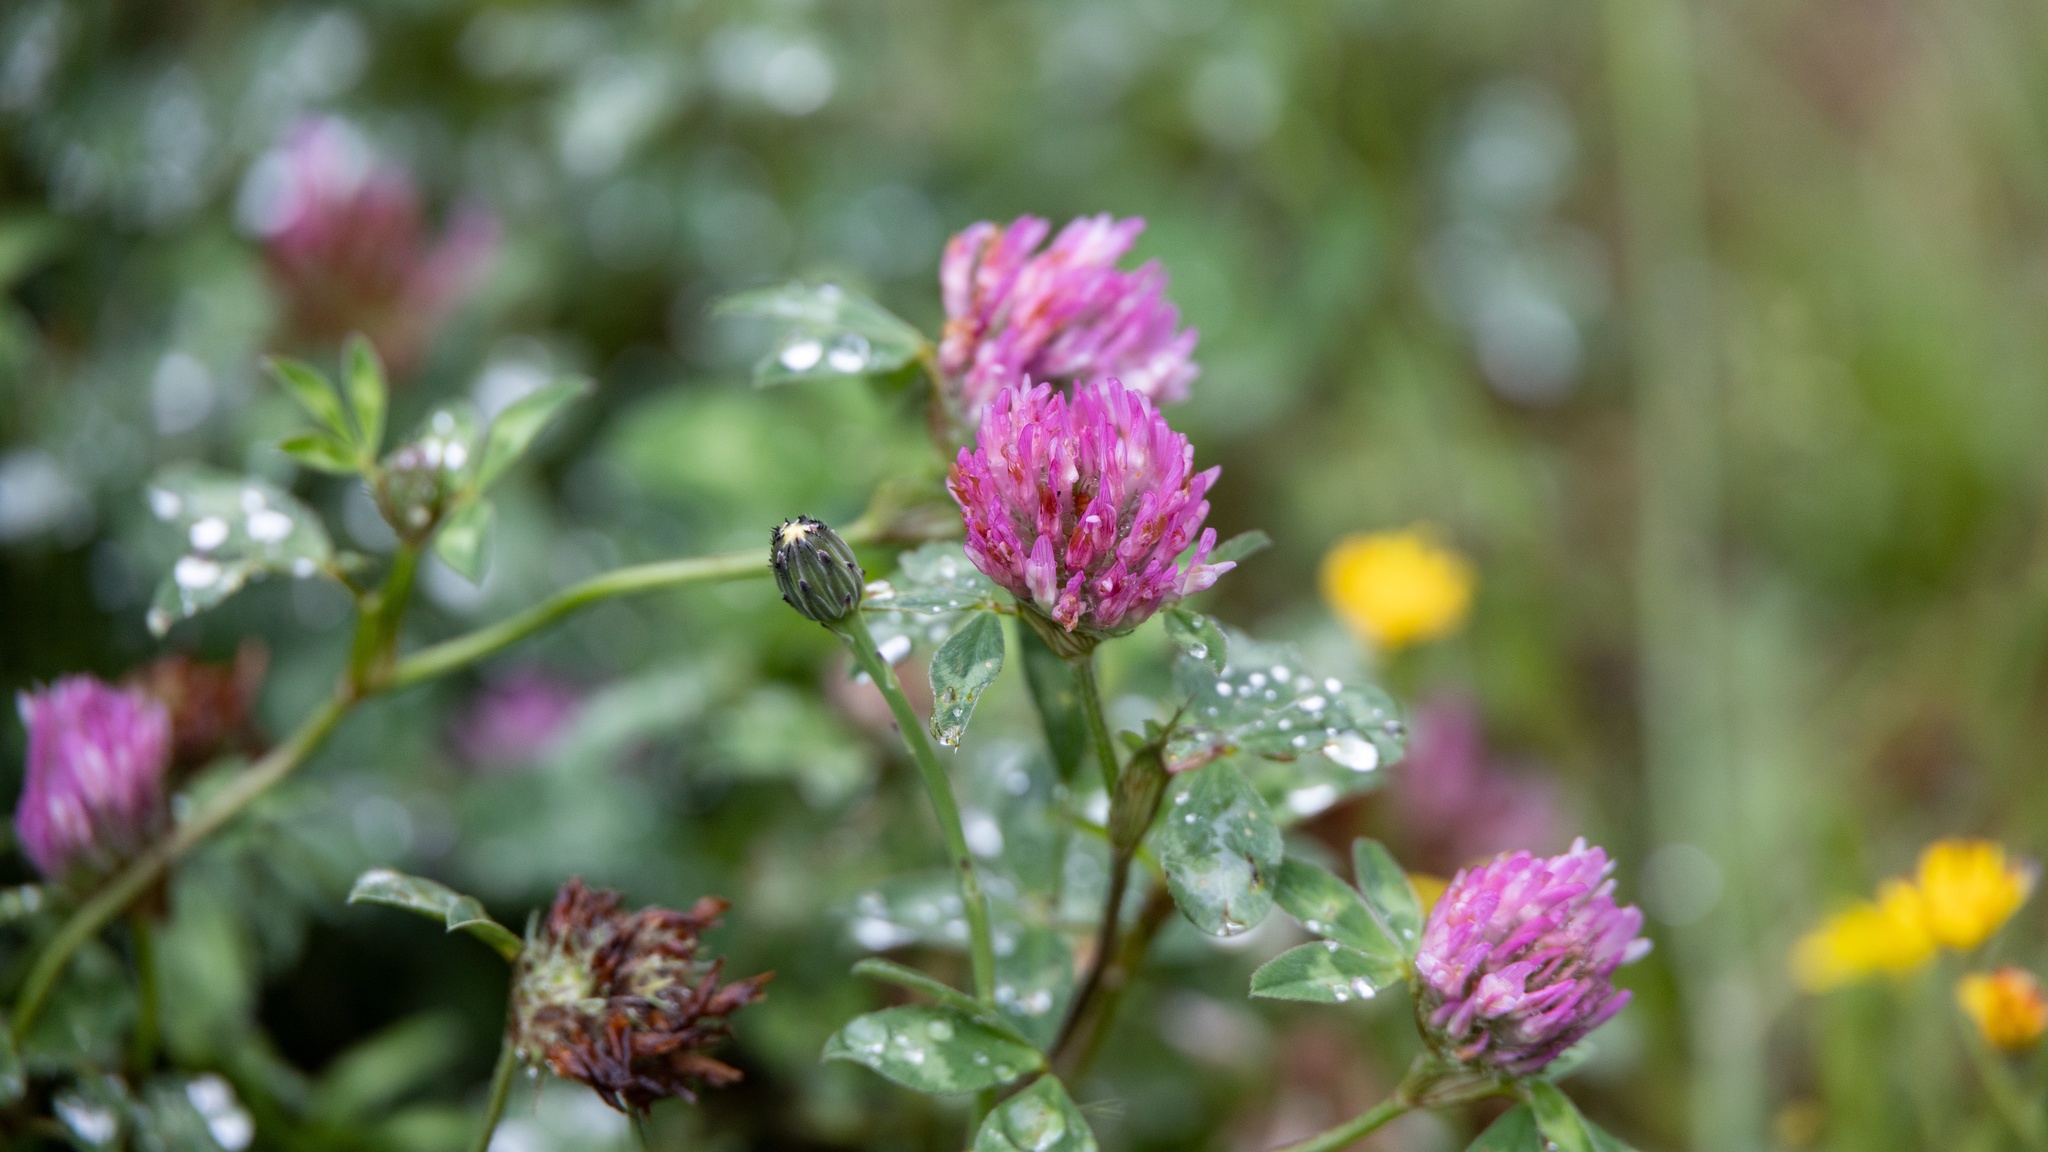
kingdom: Plantae
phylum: Tracheophyta
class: Magnoliopsida
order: Fabales
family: Fabaceae
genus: Trifolium
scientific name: Trifolium pratense
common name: Red clover
